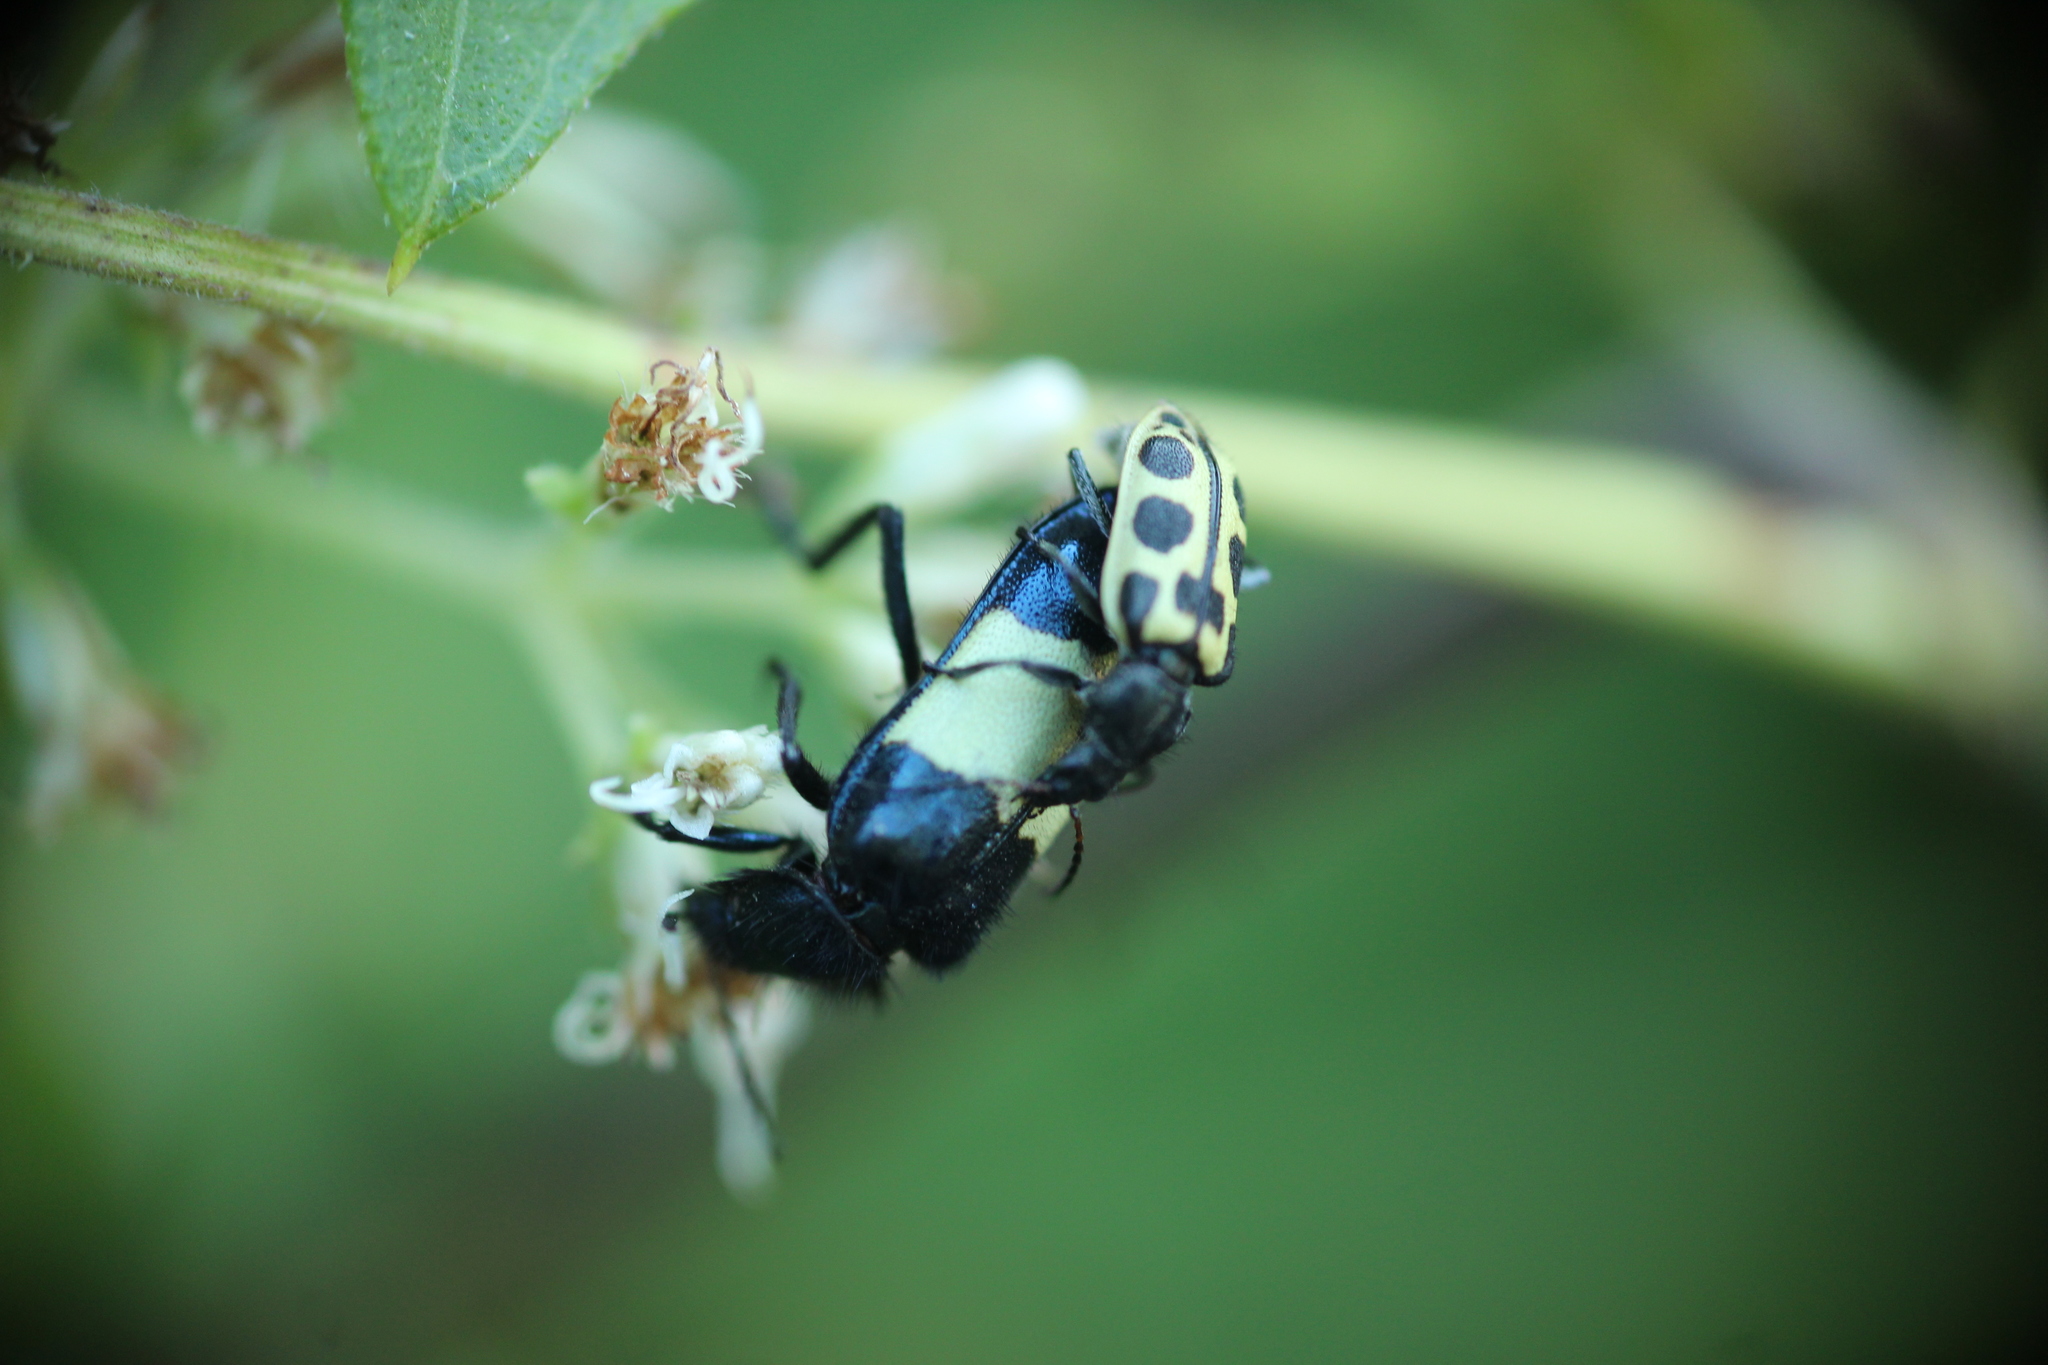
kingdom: Animalia
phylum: Arthropoda
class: Insecta
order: Coleoptera
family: Melyridae
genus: Astylus
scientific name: Astylus
